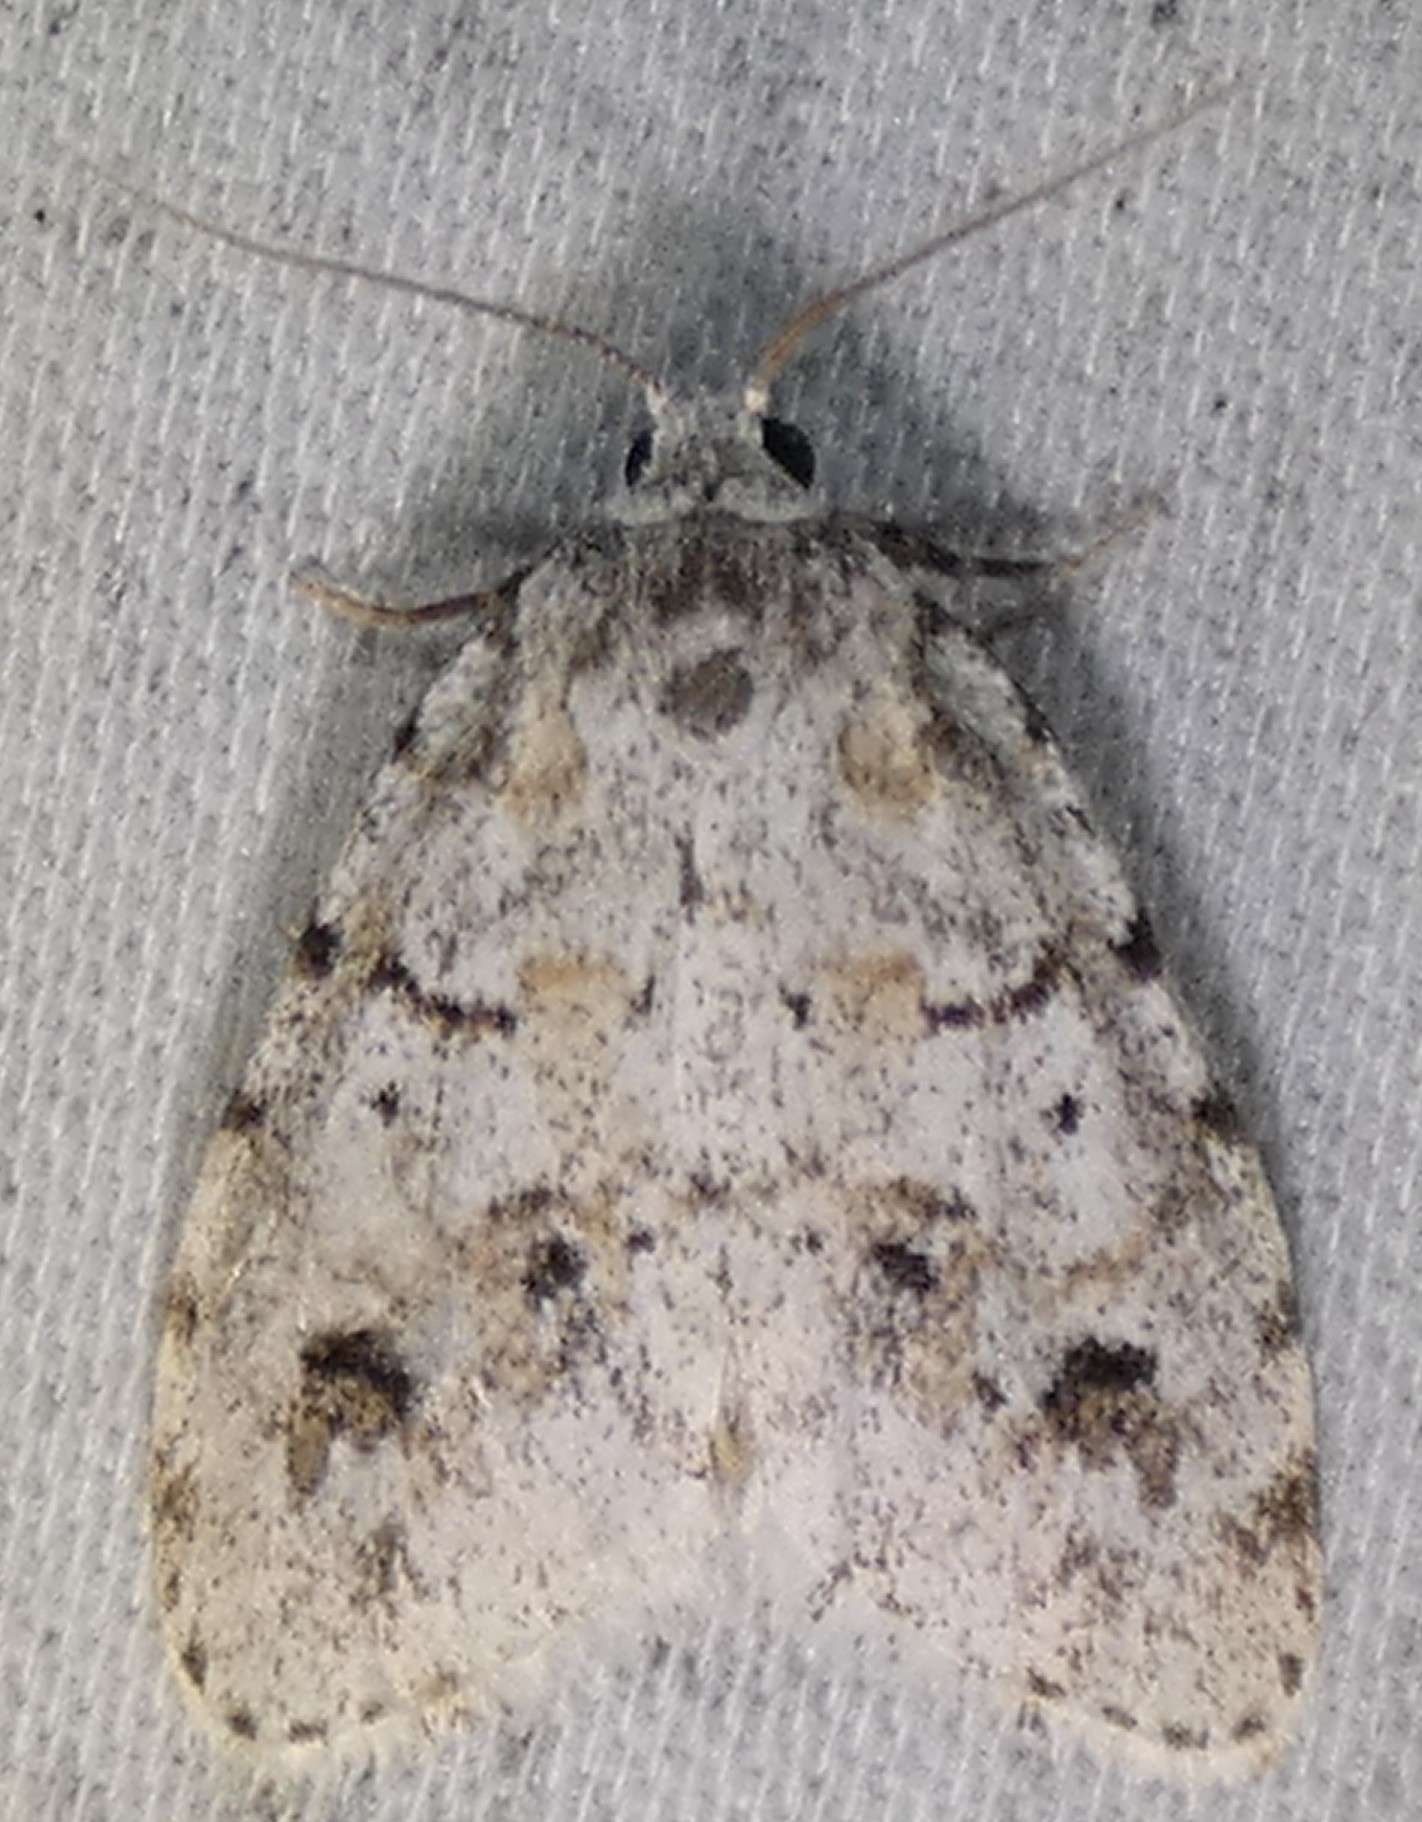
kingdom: Animalia
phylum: Arthropoda
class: Insecta
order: Lepidoptera
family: Erebidae
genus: Clemensia
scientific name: Clemensia albata
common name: Little white lichen moth
